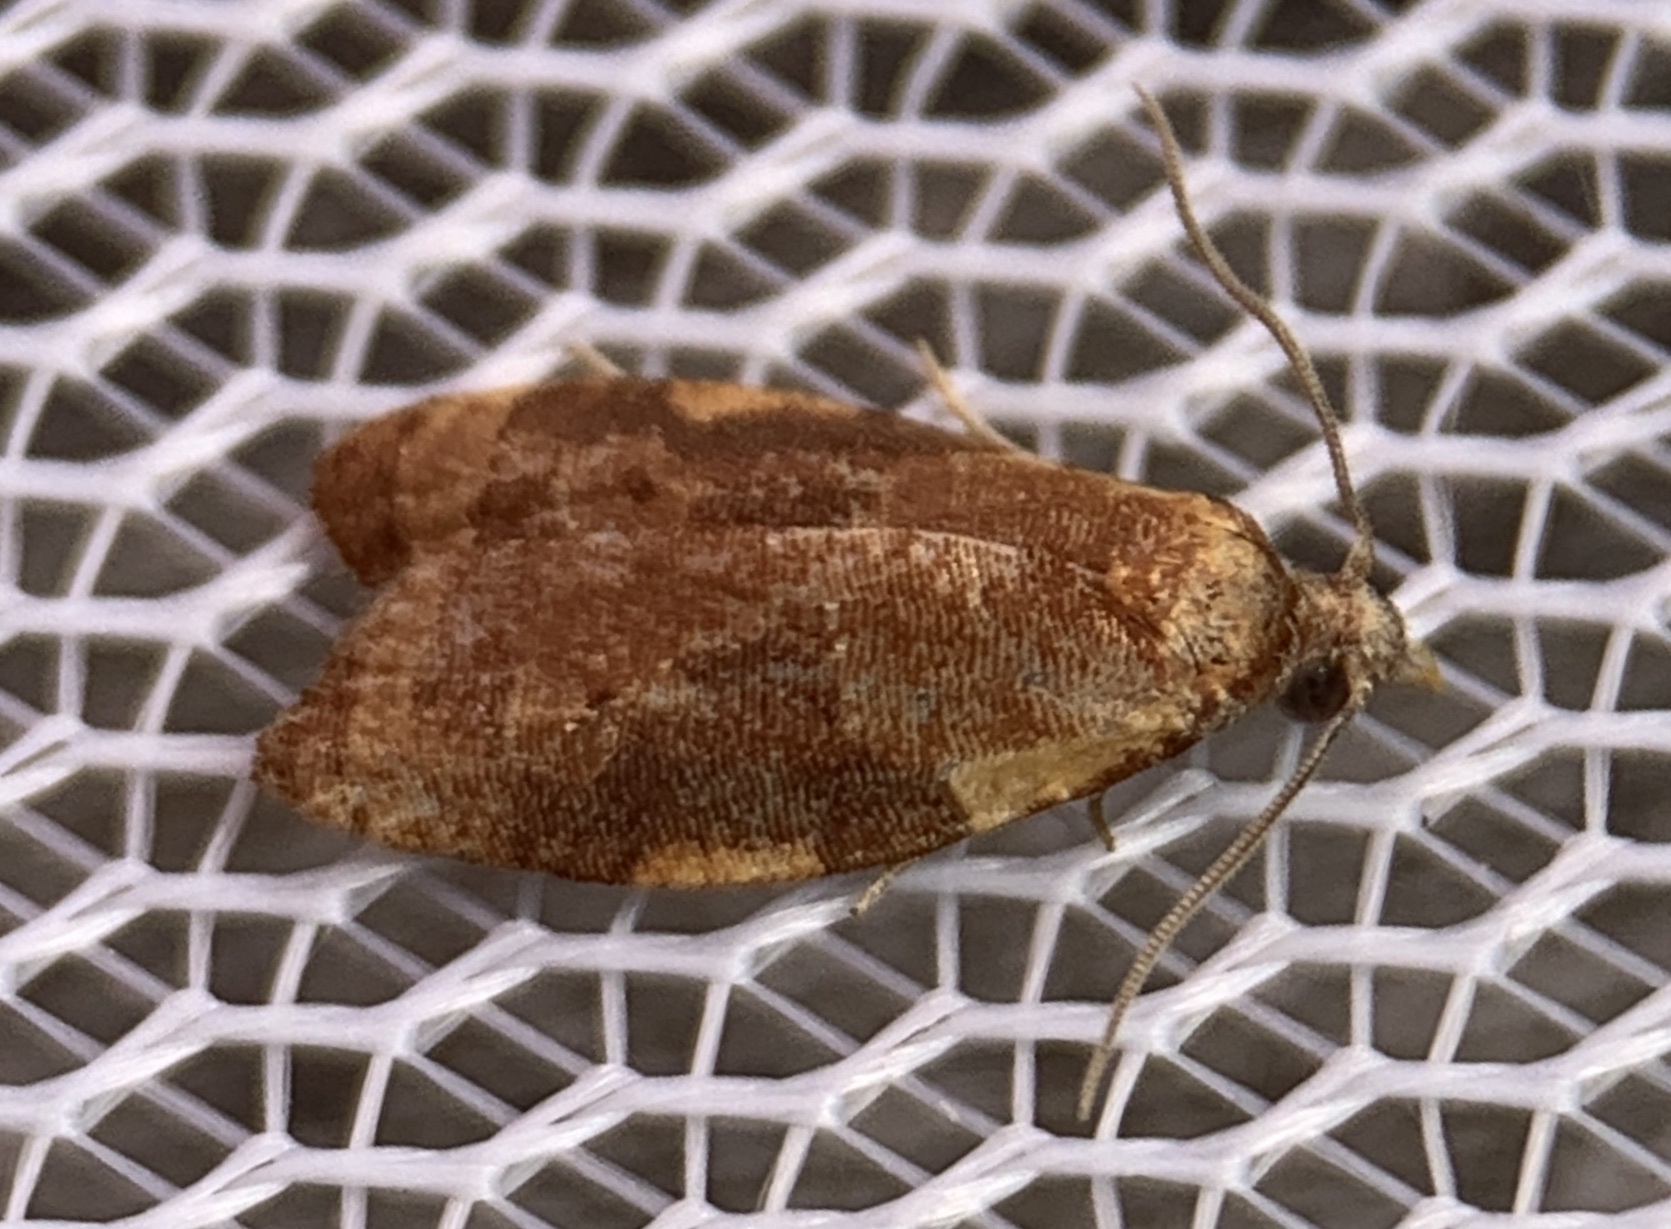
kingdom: Animalia
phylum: Arthropoda
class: Insecta
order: Lepidoptera
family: Tortricidae
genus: Cenopis
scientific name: Cenopis diluticostana
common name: Spring dead-leaf roller moth
